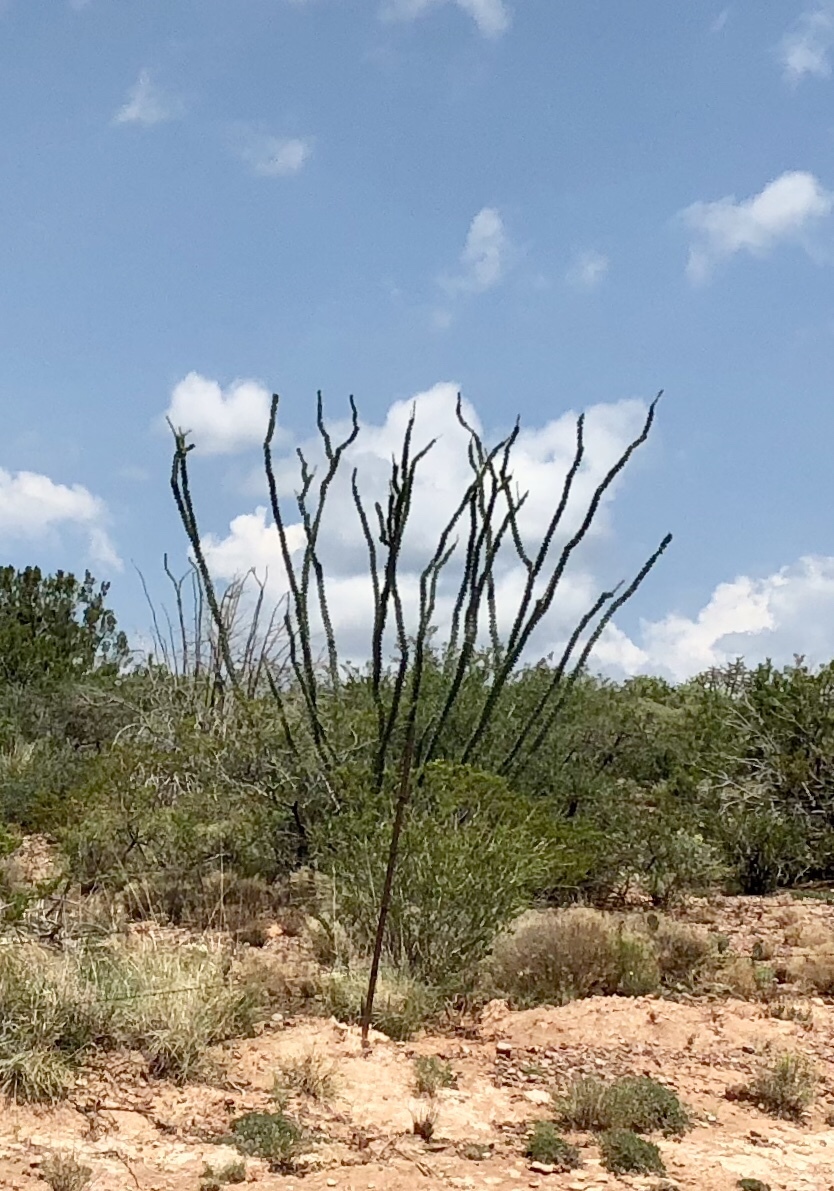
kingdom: Plantae
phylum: Tracheophyta
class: Magnoliopsida
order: Ericales
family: Fouquieriaceae
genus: Fouquieria
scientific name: Fouquieria splendens
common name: Vine-cactus
